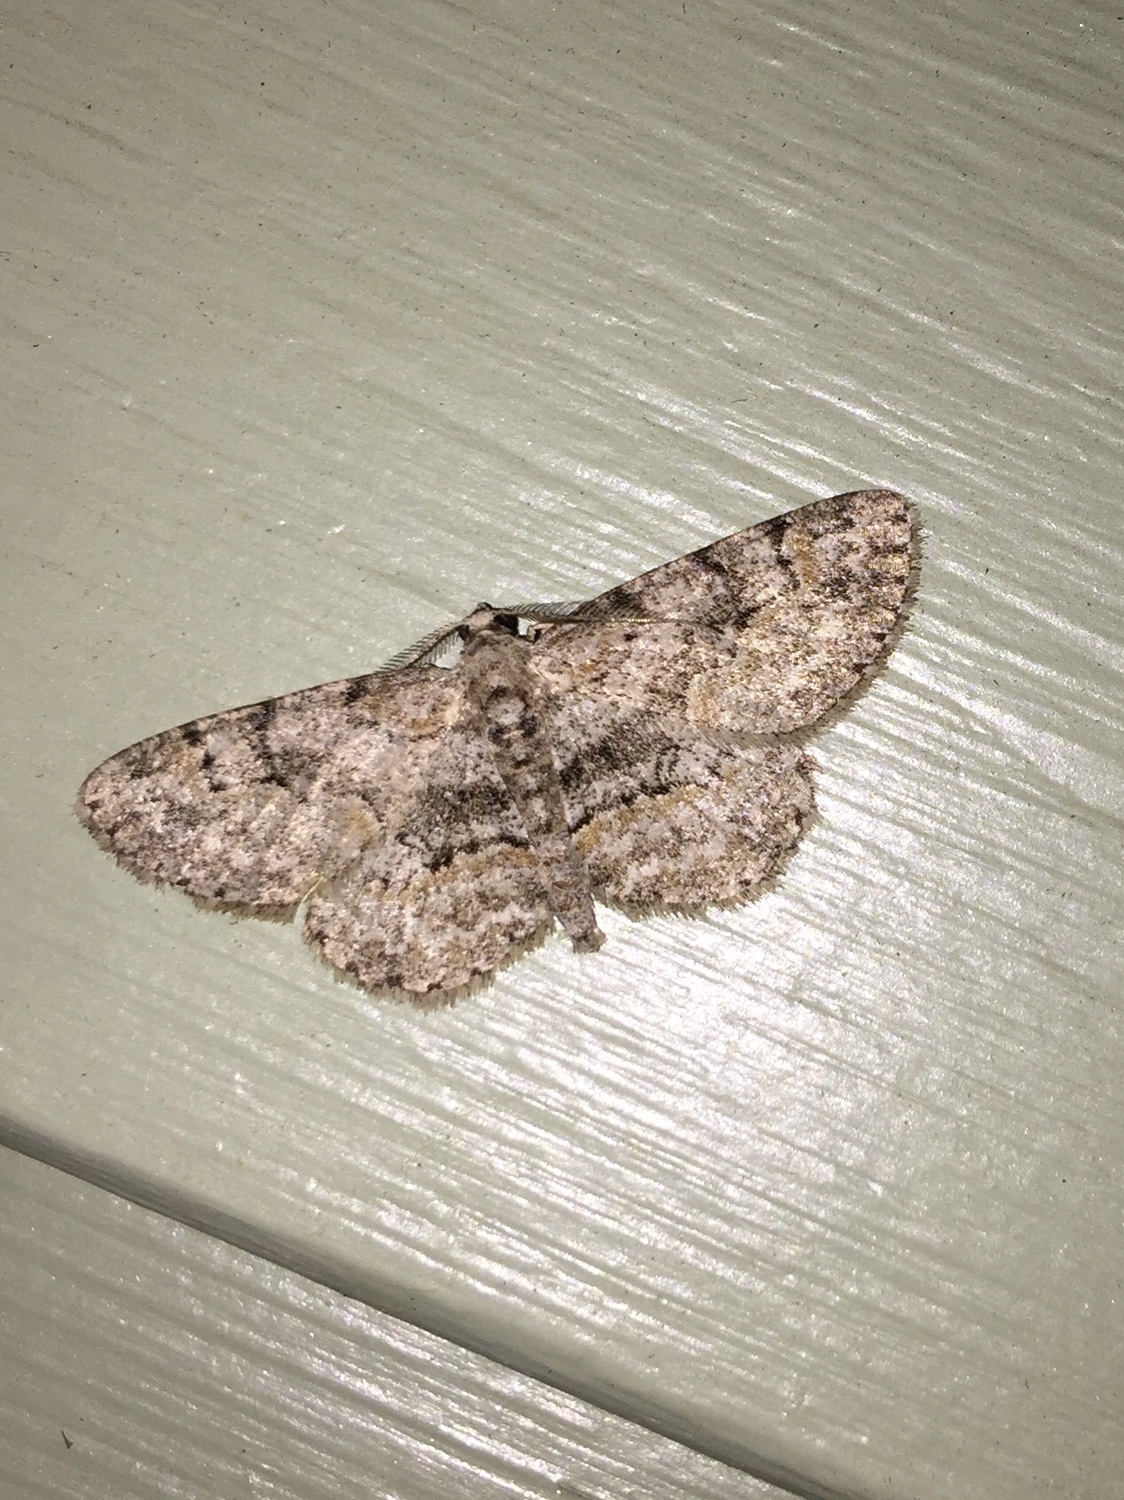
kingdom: Animalia
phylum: Arthropoda
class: Insecta
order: Lepidoptera
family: Geometridae
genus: Iridopsis
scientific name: Iridopsis ephyraria
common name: Pale-winged gray
